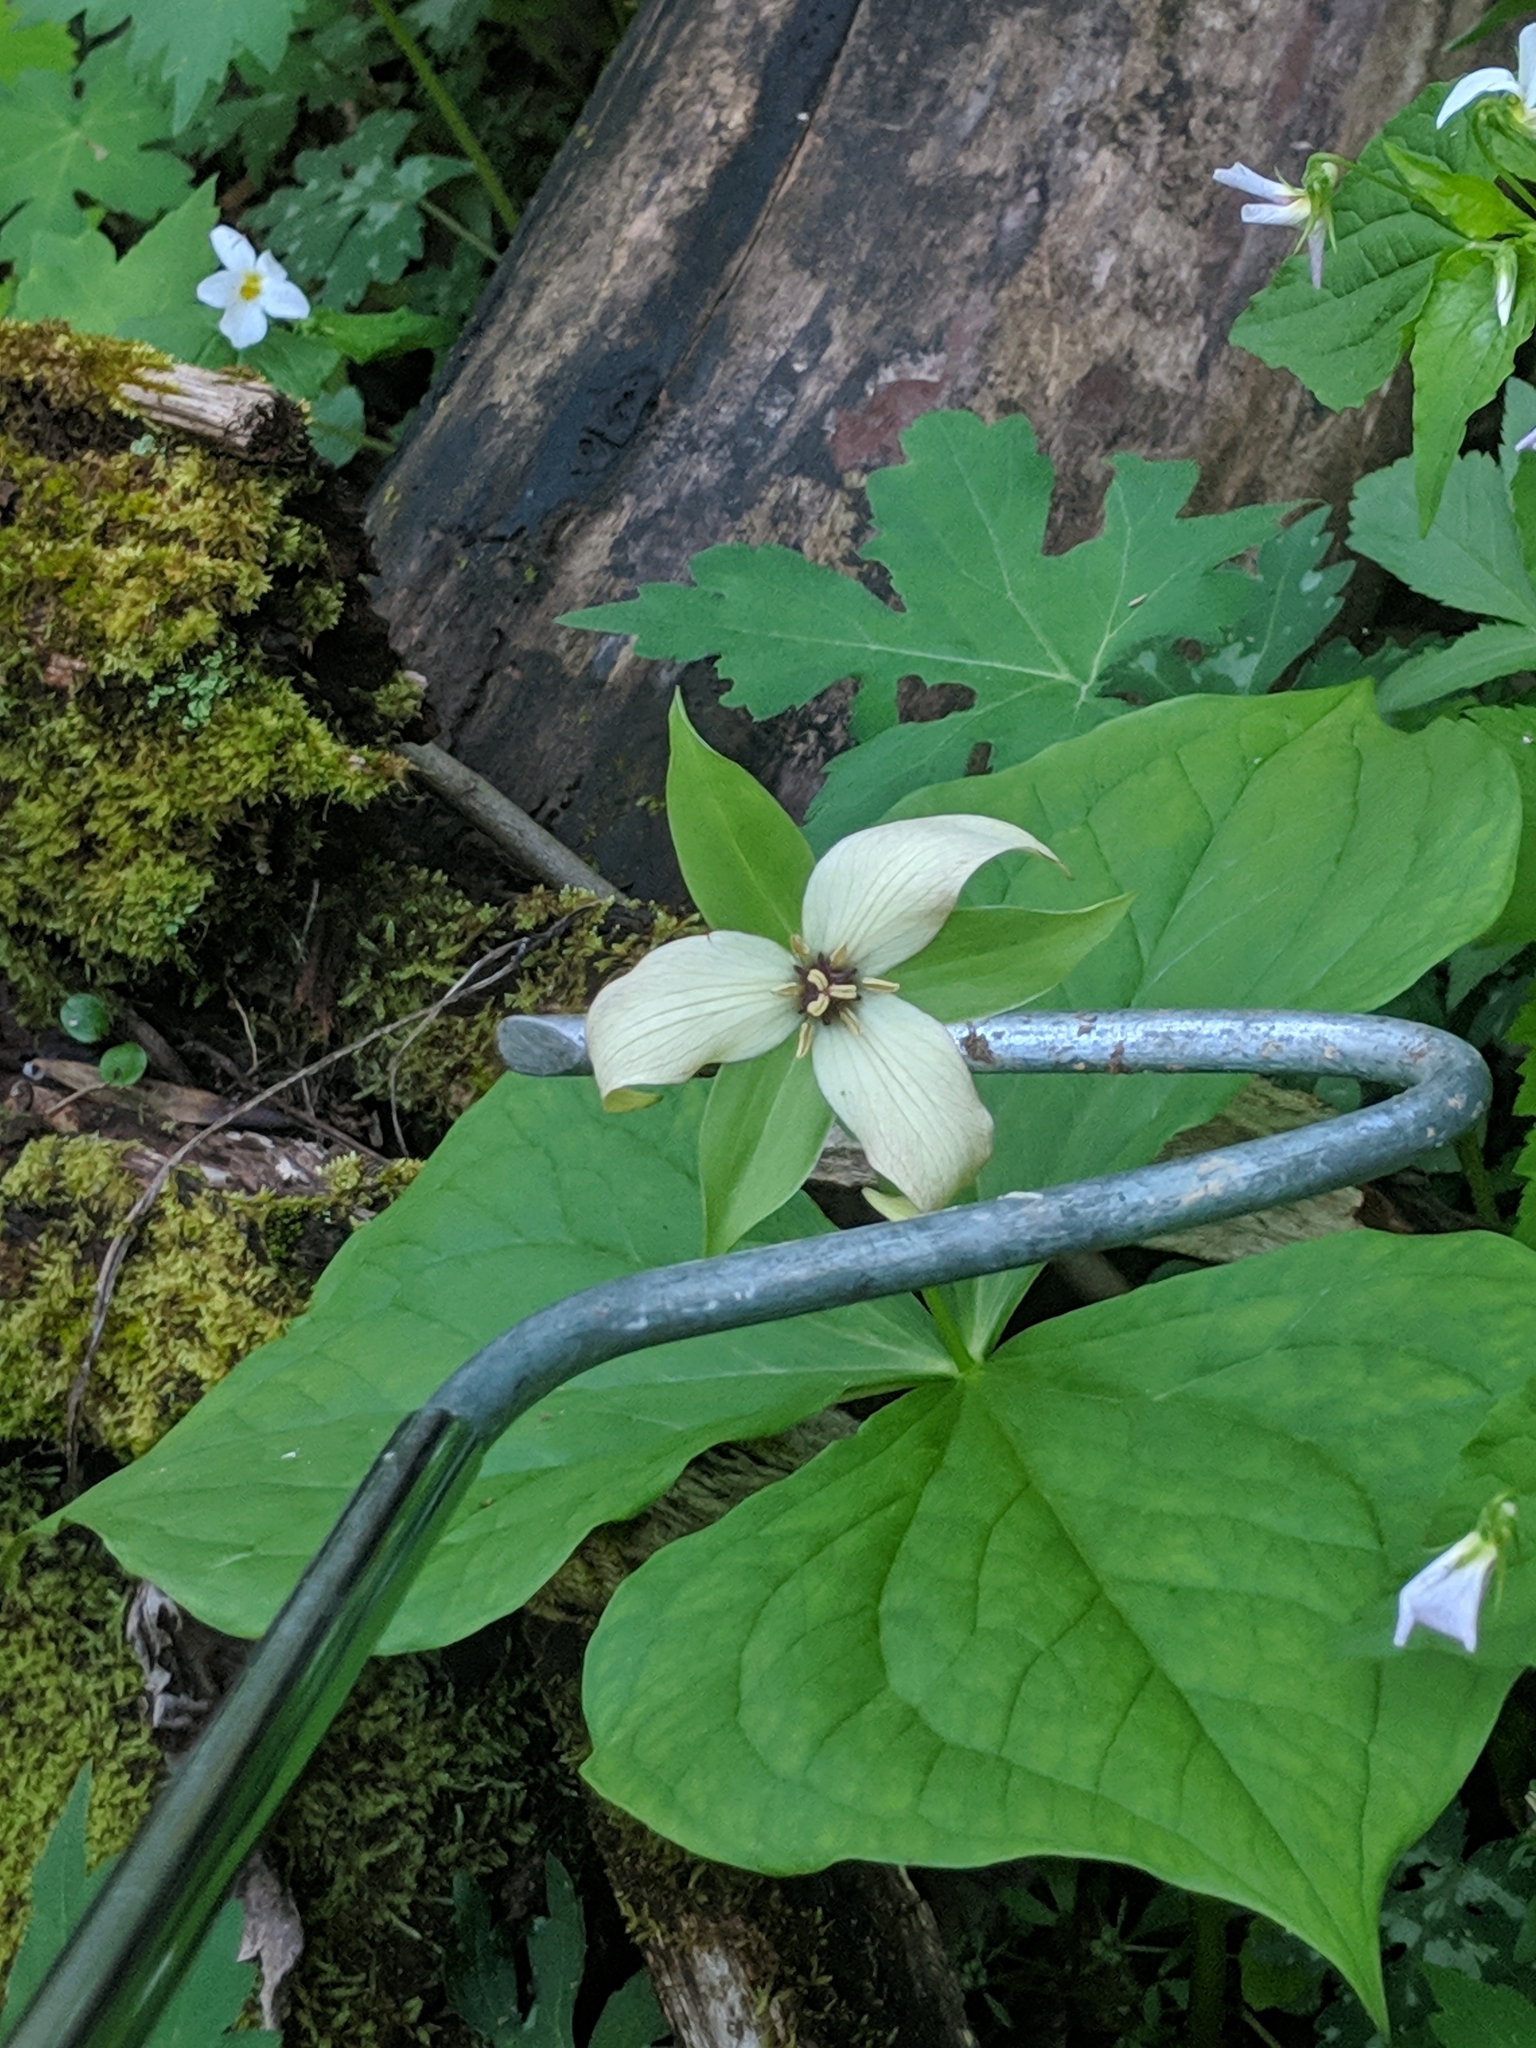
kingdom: Plantae
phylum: Tracheophyta
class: Liliopsida
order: Liliales
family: Melanthiaceae
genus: Trillium
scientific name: Trillium erectum
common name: Purple trillium
